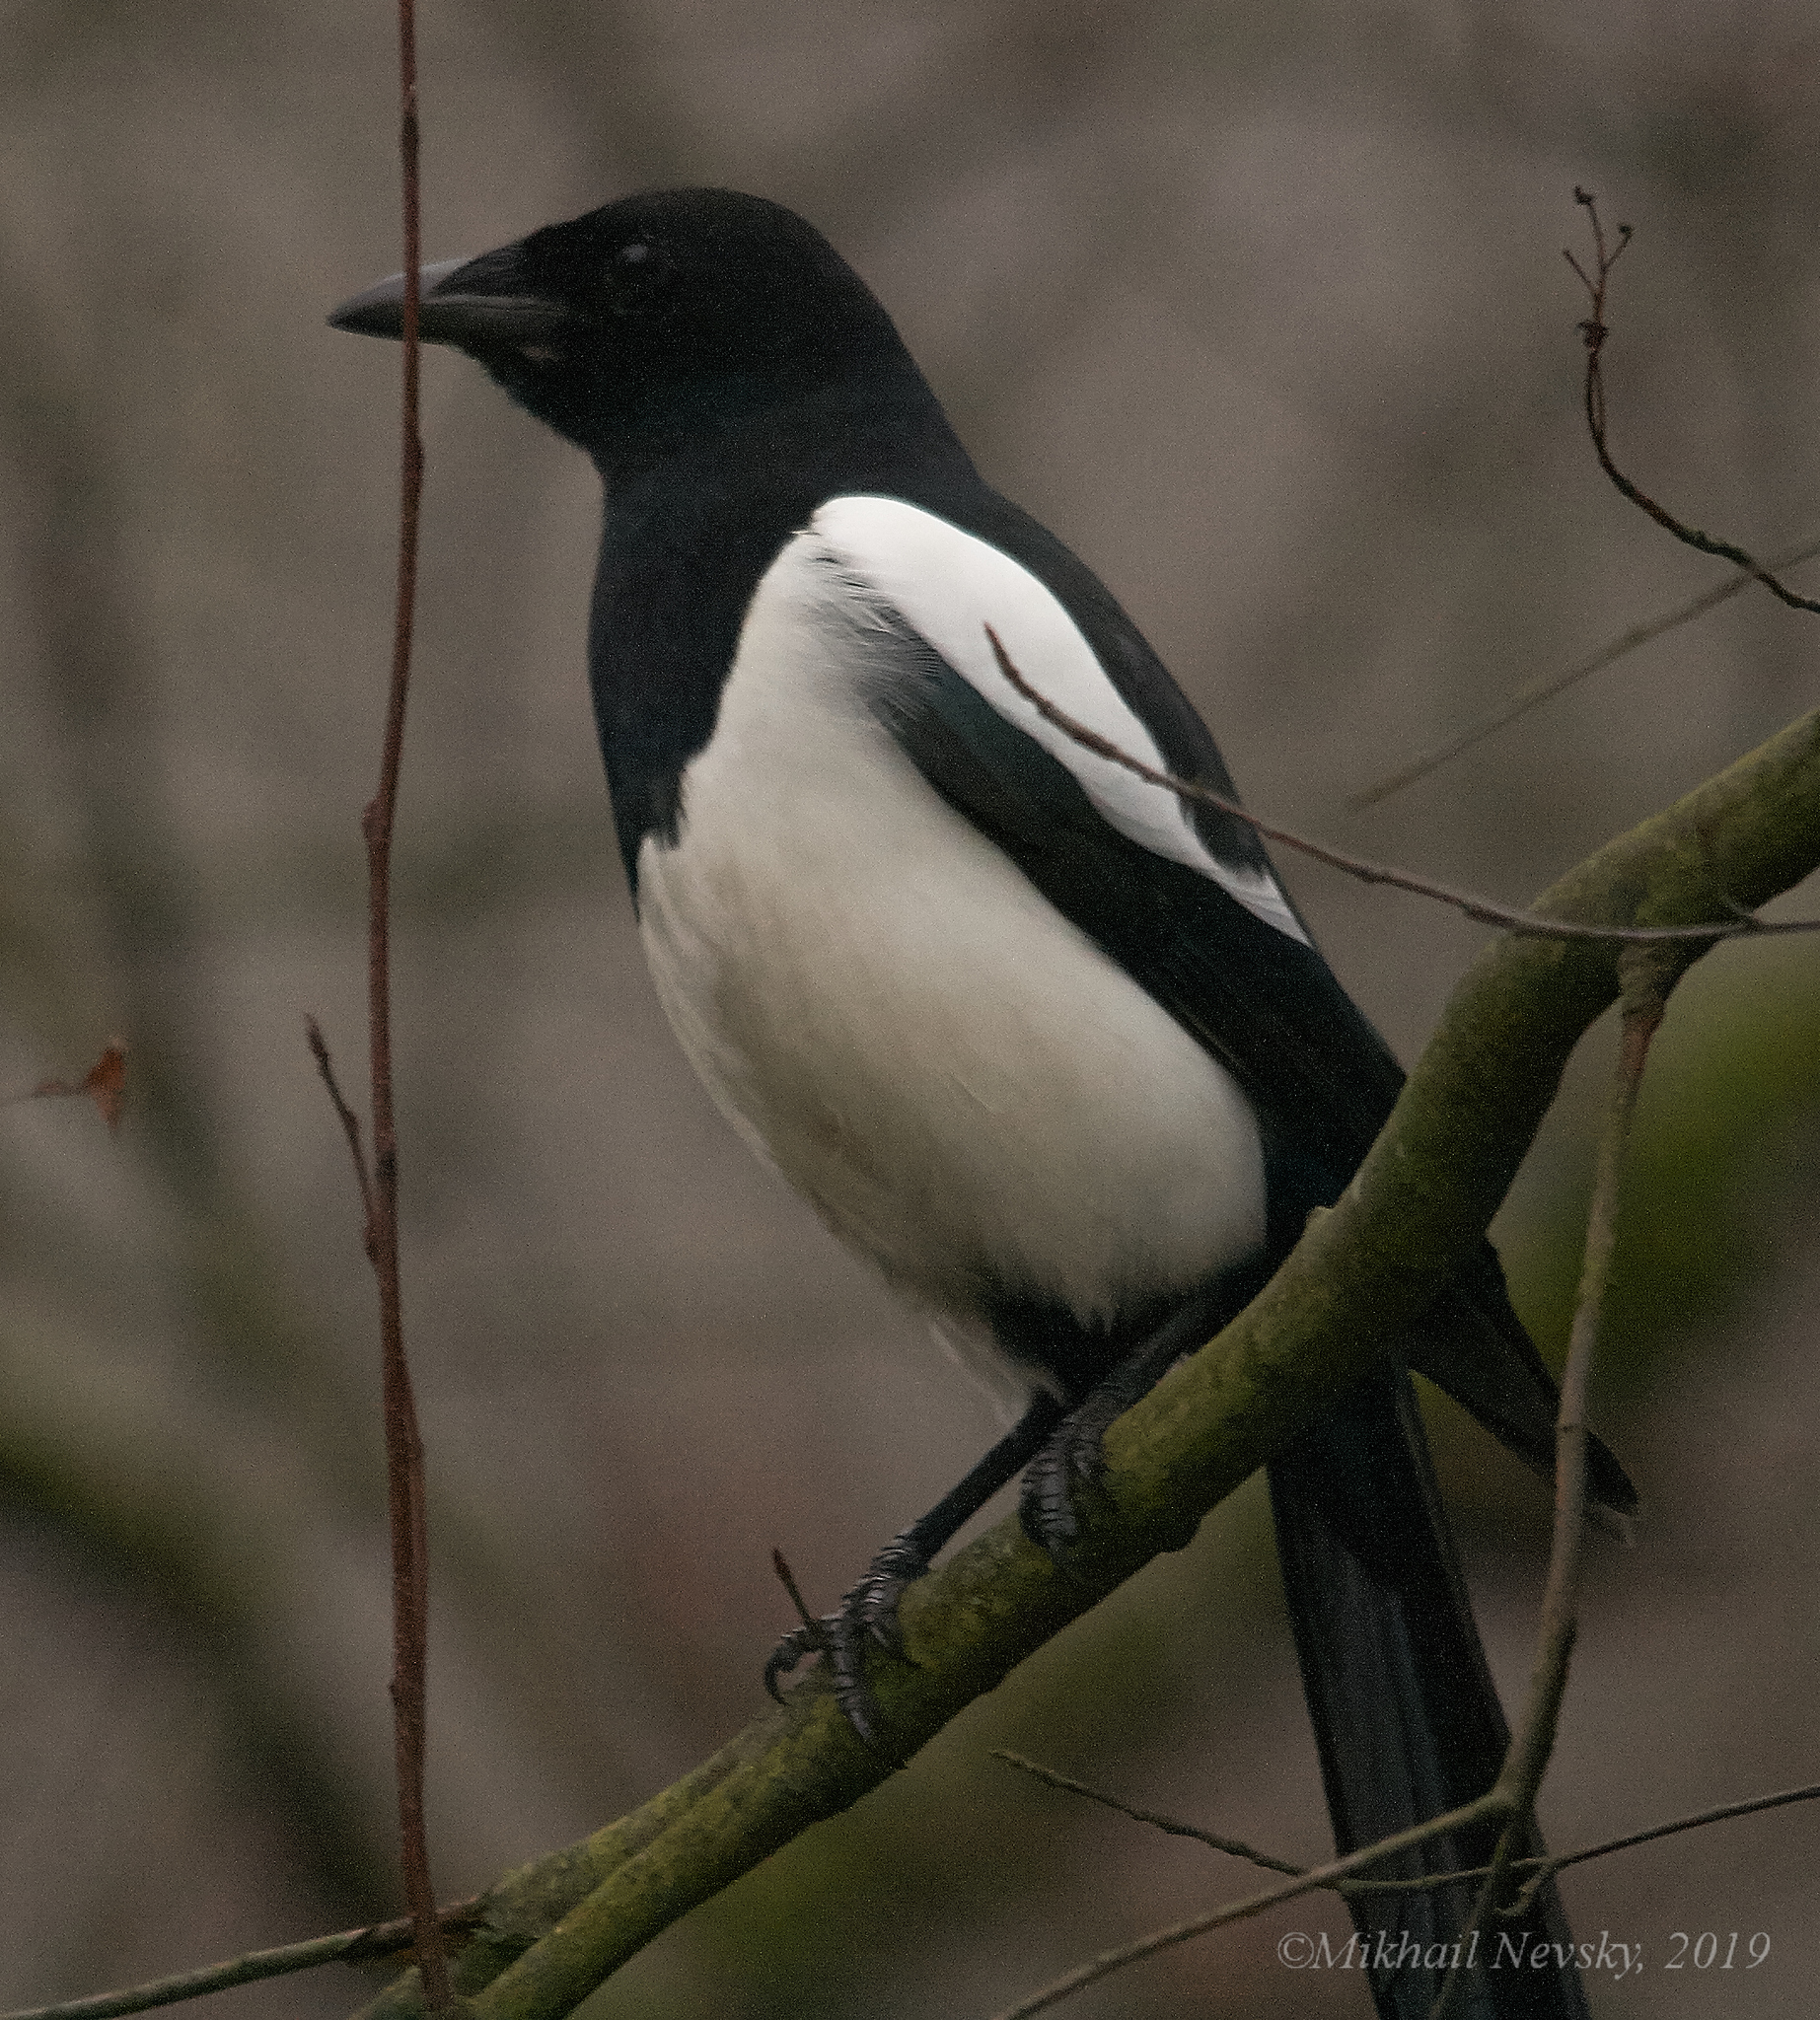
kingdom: Animalia
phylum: Chordata
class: Aves
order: Passeriformes
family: Corvidae
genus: Pica
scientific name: Pica pica
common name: Eurasian magpie
